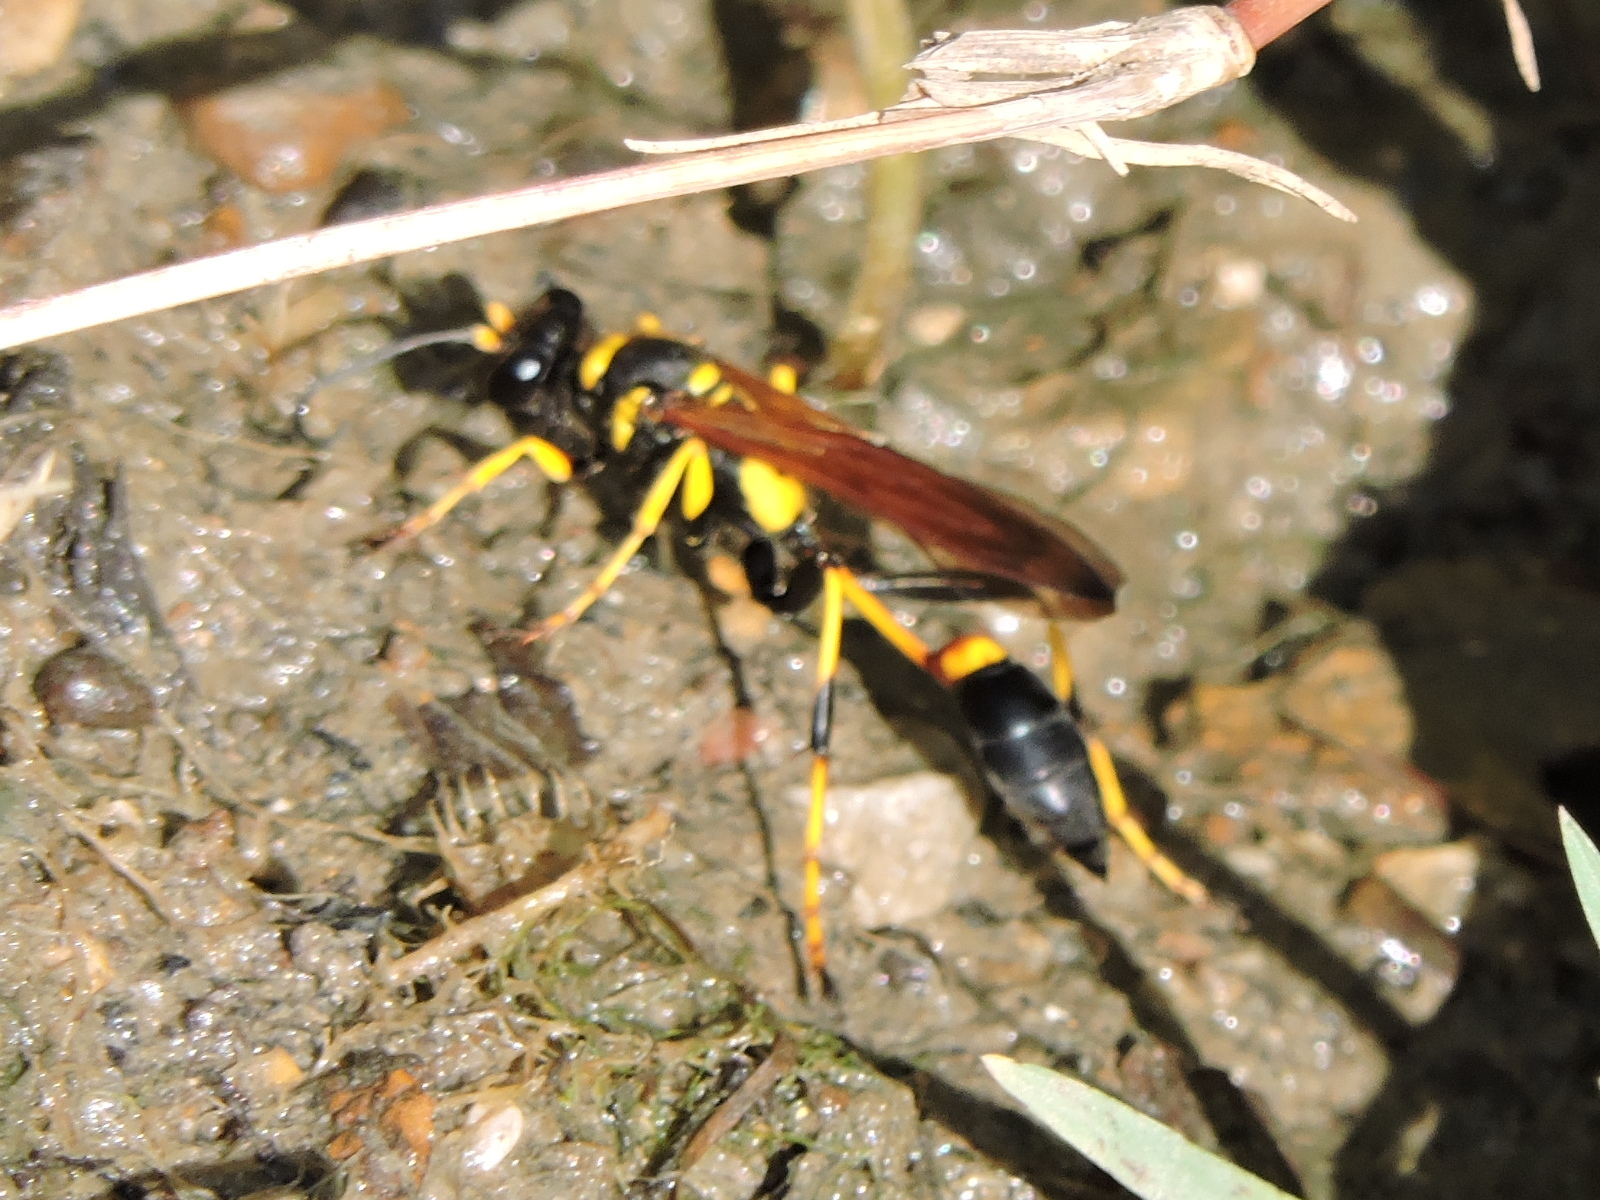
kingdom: Animalia
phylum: Arthropoda
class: Insecta
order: Hymenoptera
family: Sphecidae
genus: Sceliphron
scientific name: Sceliphron caementarium
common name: Mud dauber
